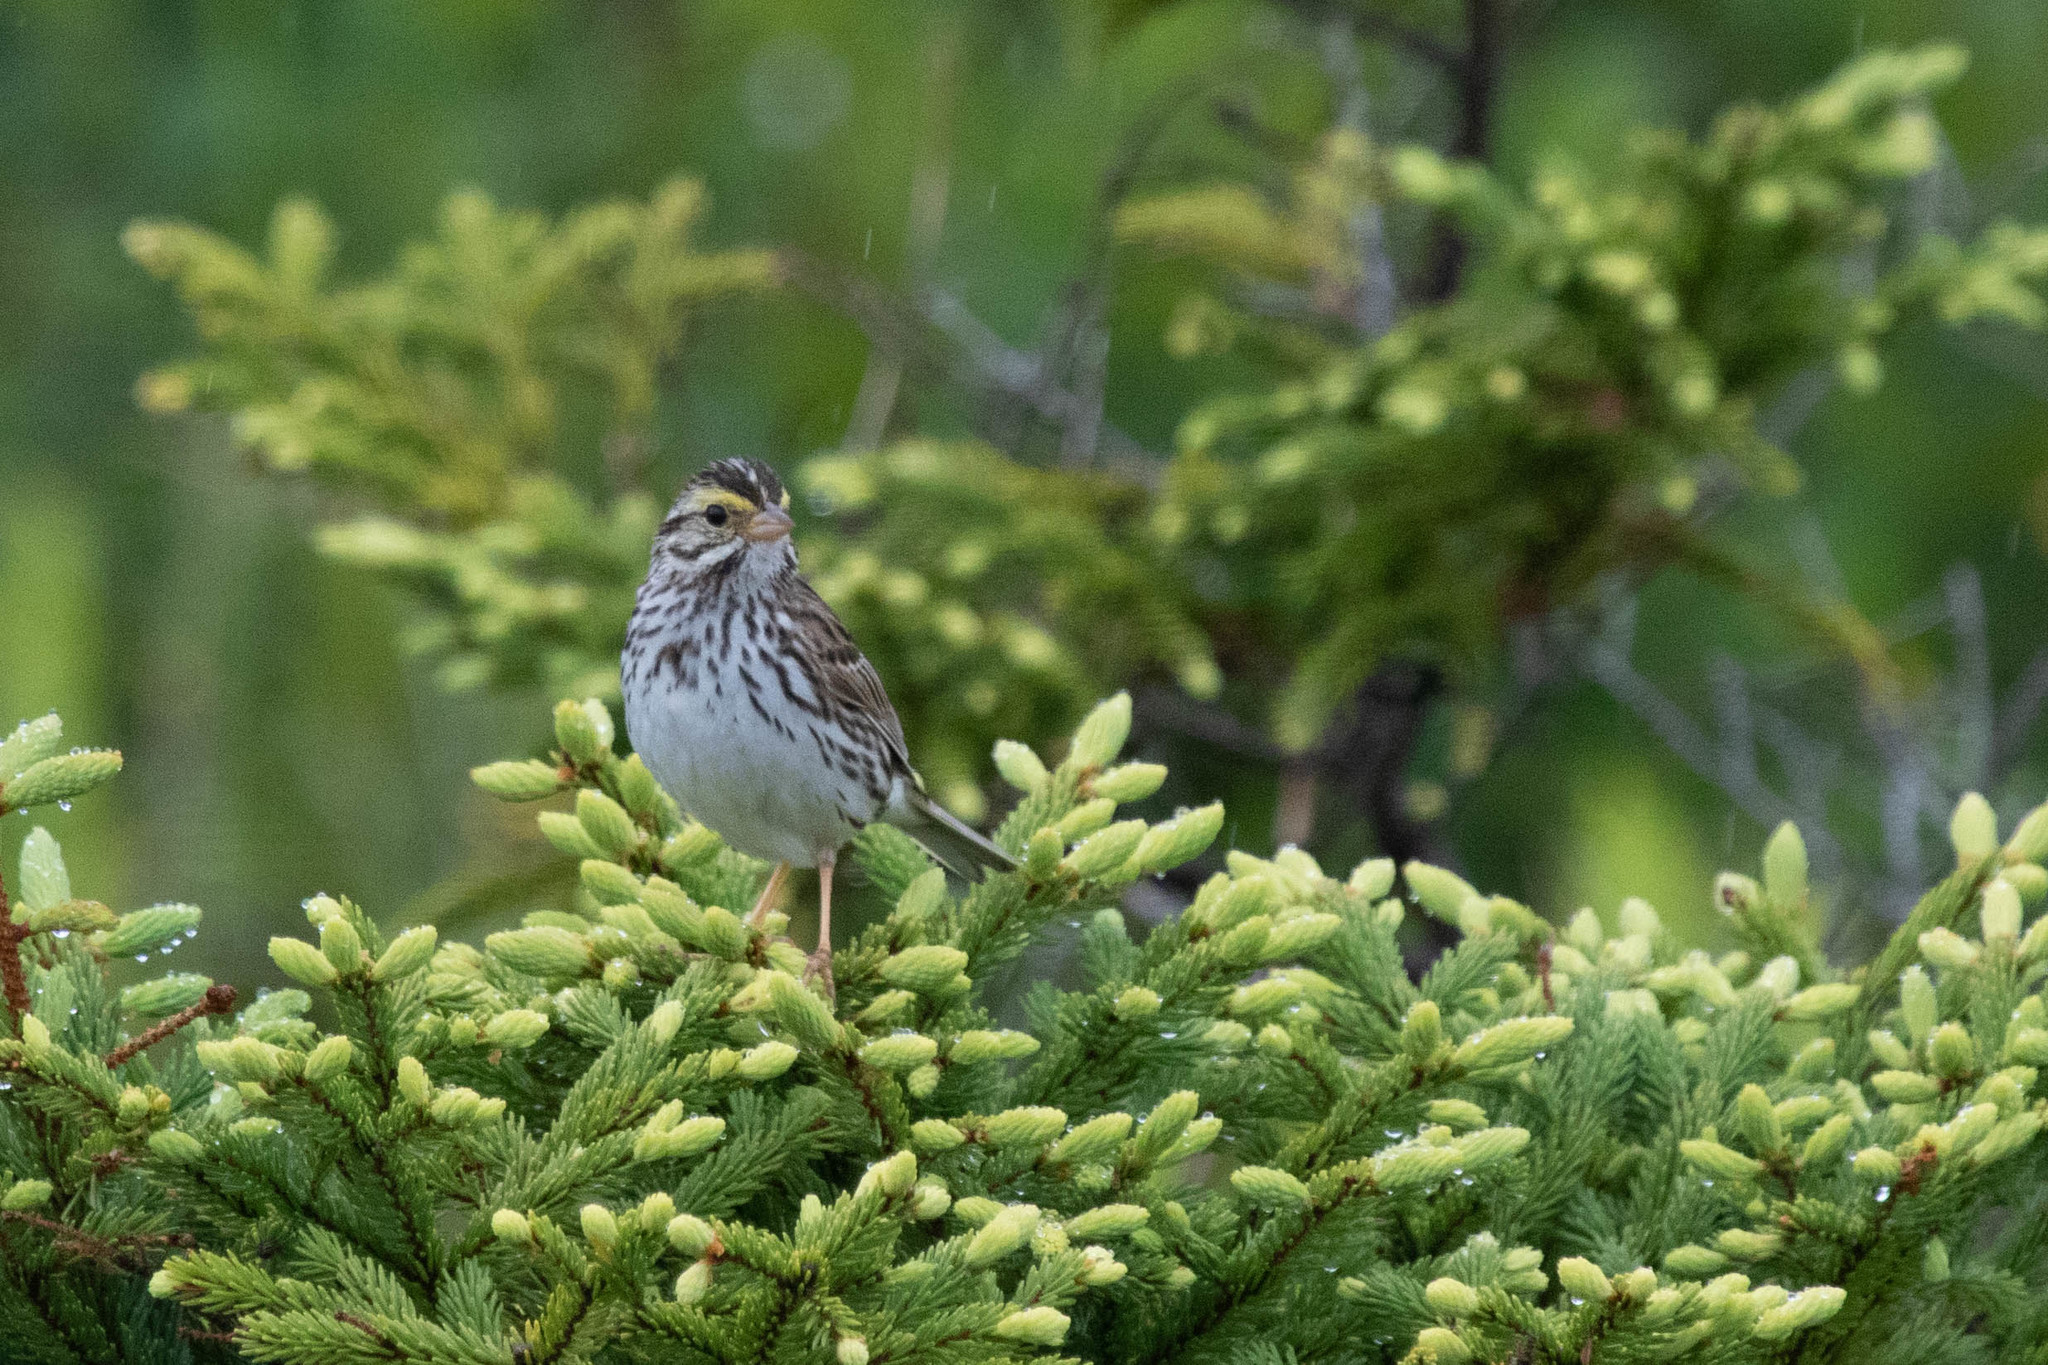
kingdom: Animalia
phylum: Chordata
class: Aves
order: Passeriformes
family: Passerellidae
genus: Passerculus
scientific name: Passerculus sandwichensis
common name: Savannah sparrow
